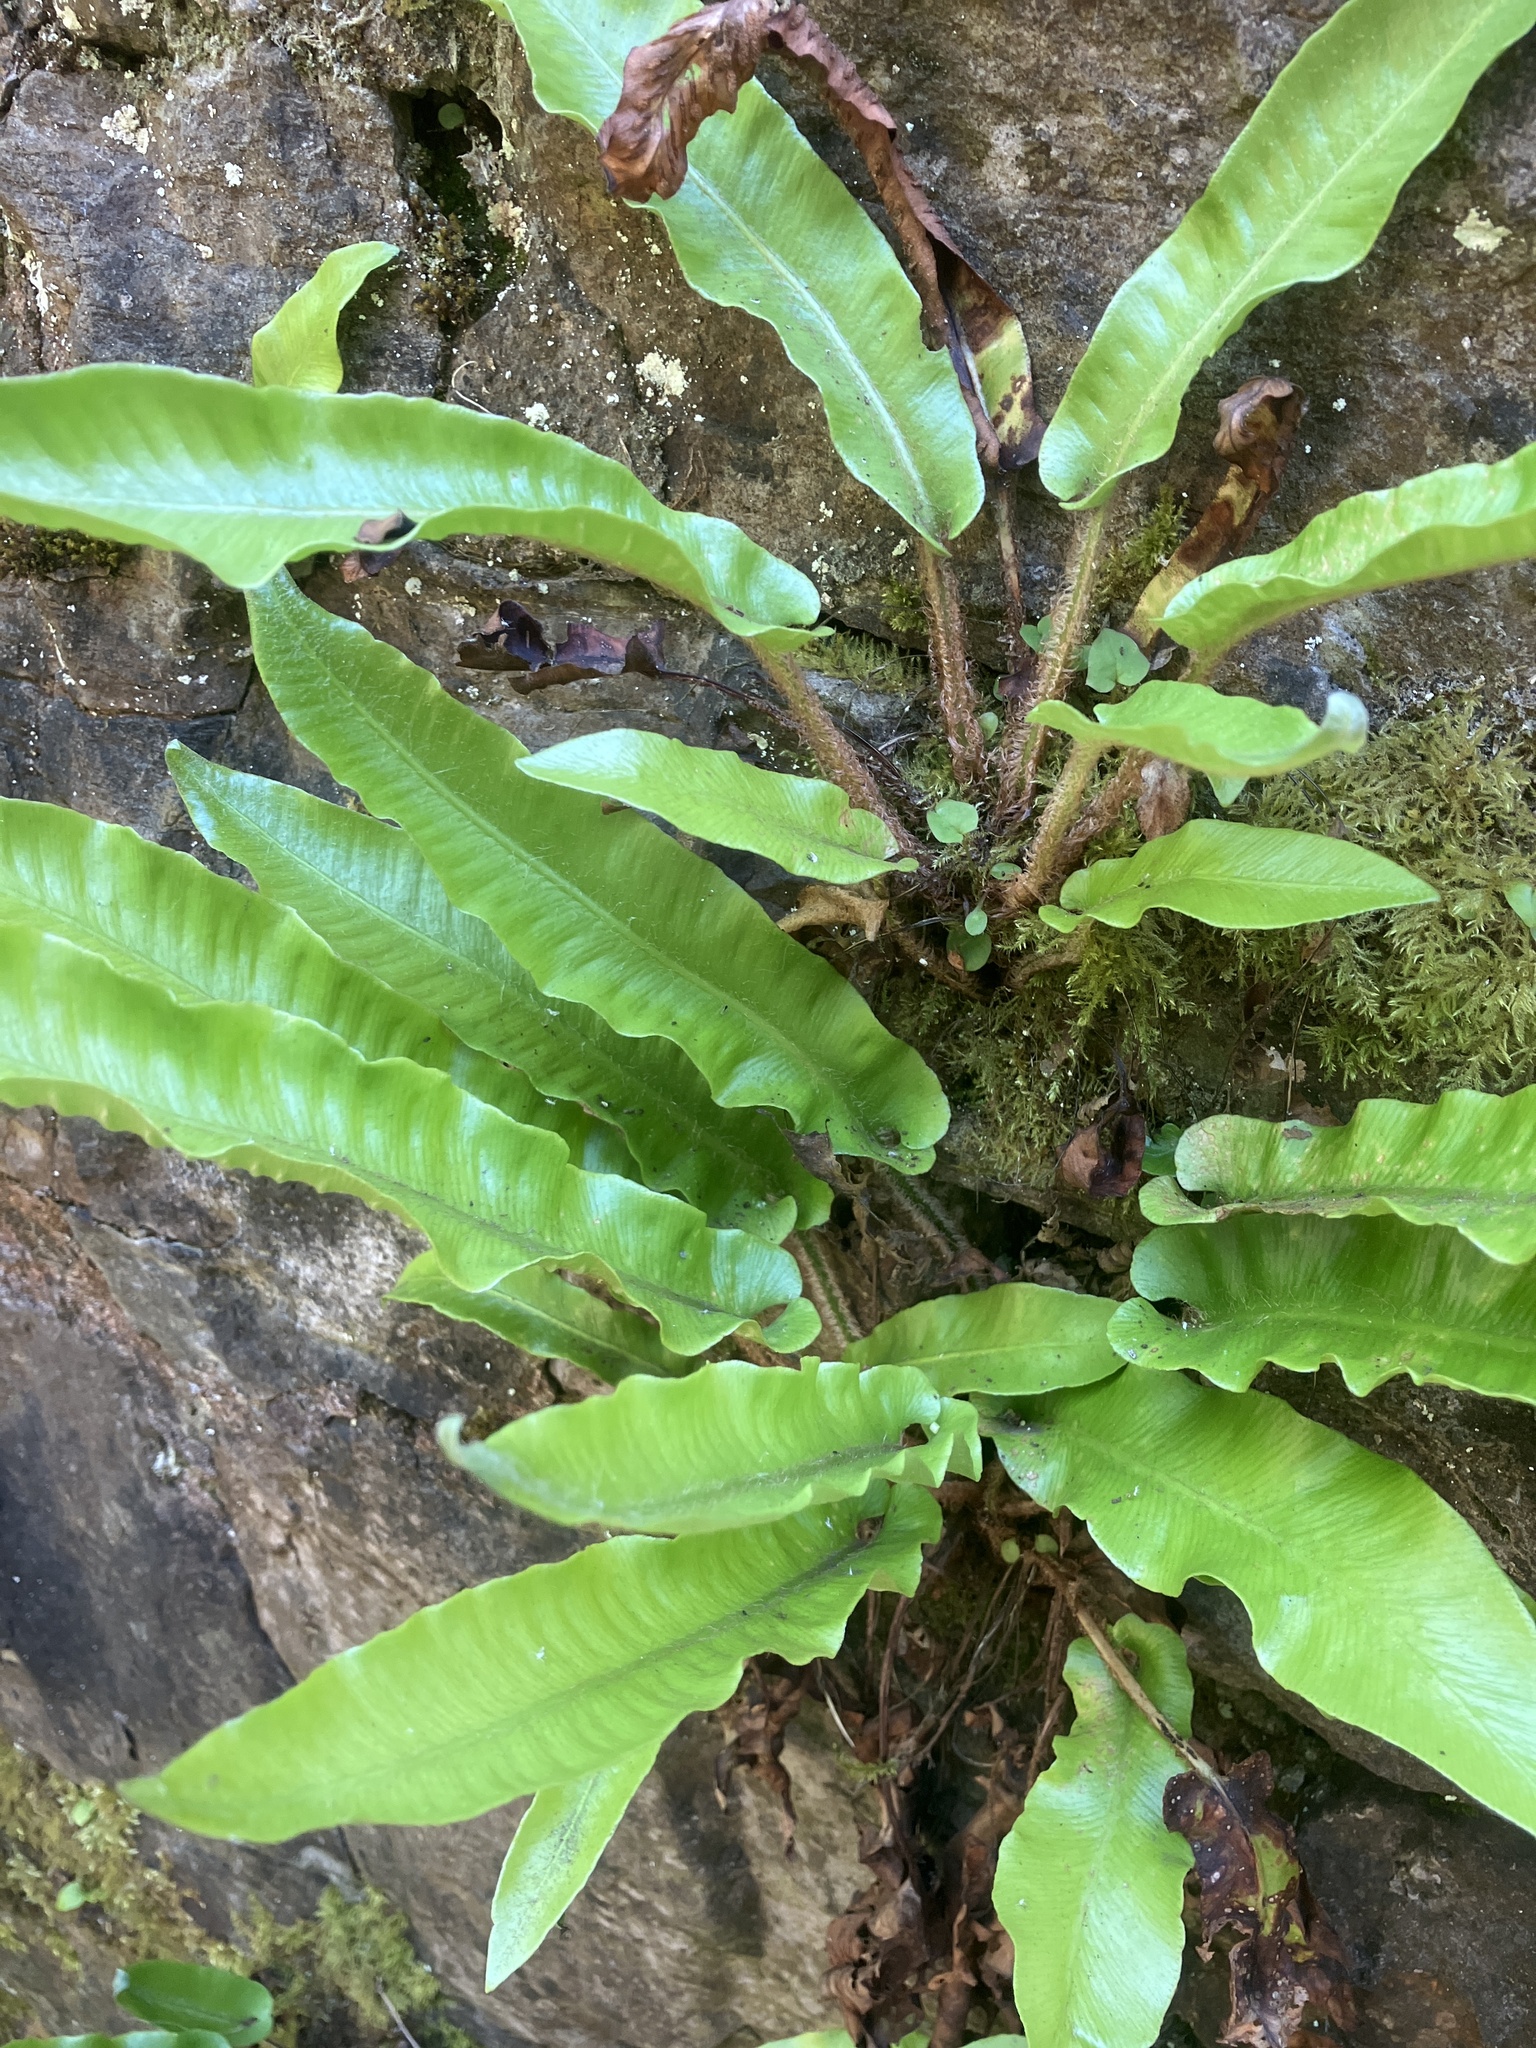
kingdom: Plantae
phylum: Tracheophyta
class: Polypodiopsida
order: Polypodiales
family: Aspleniaceae
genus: Asplenium
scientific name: Asplenium scolopendrium
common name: Hart's-tongue fern
